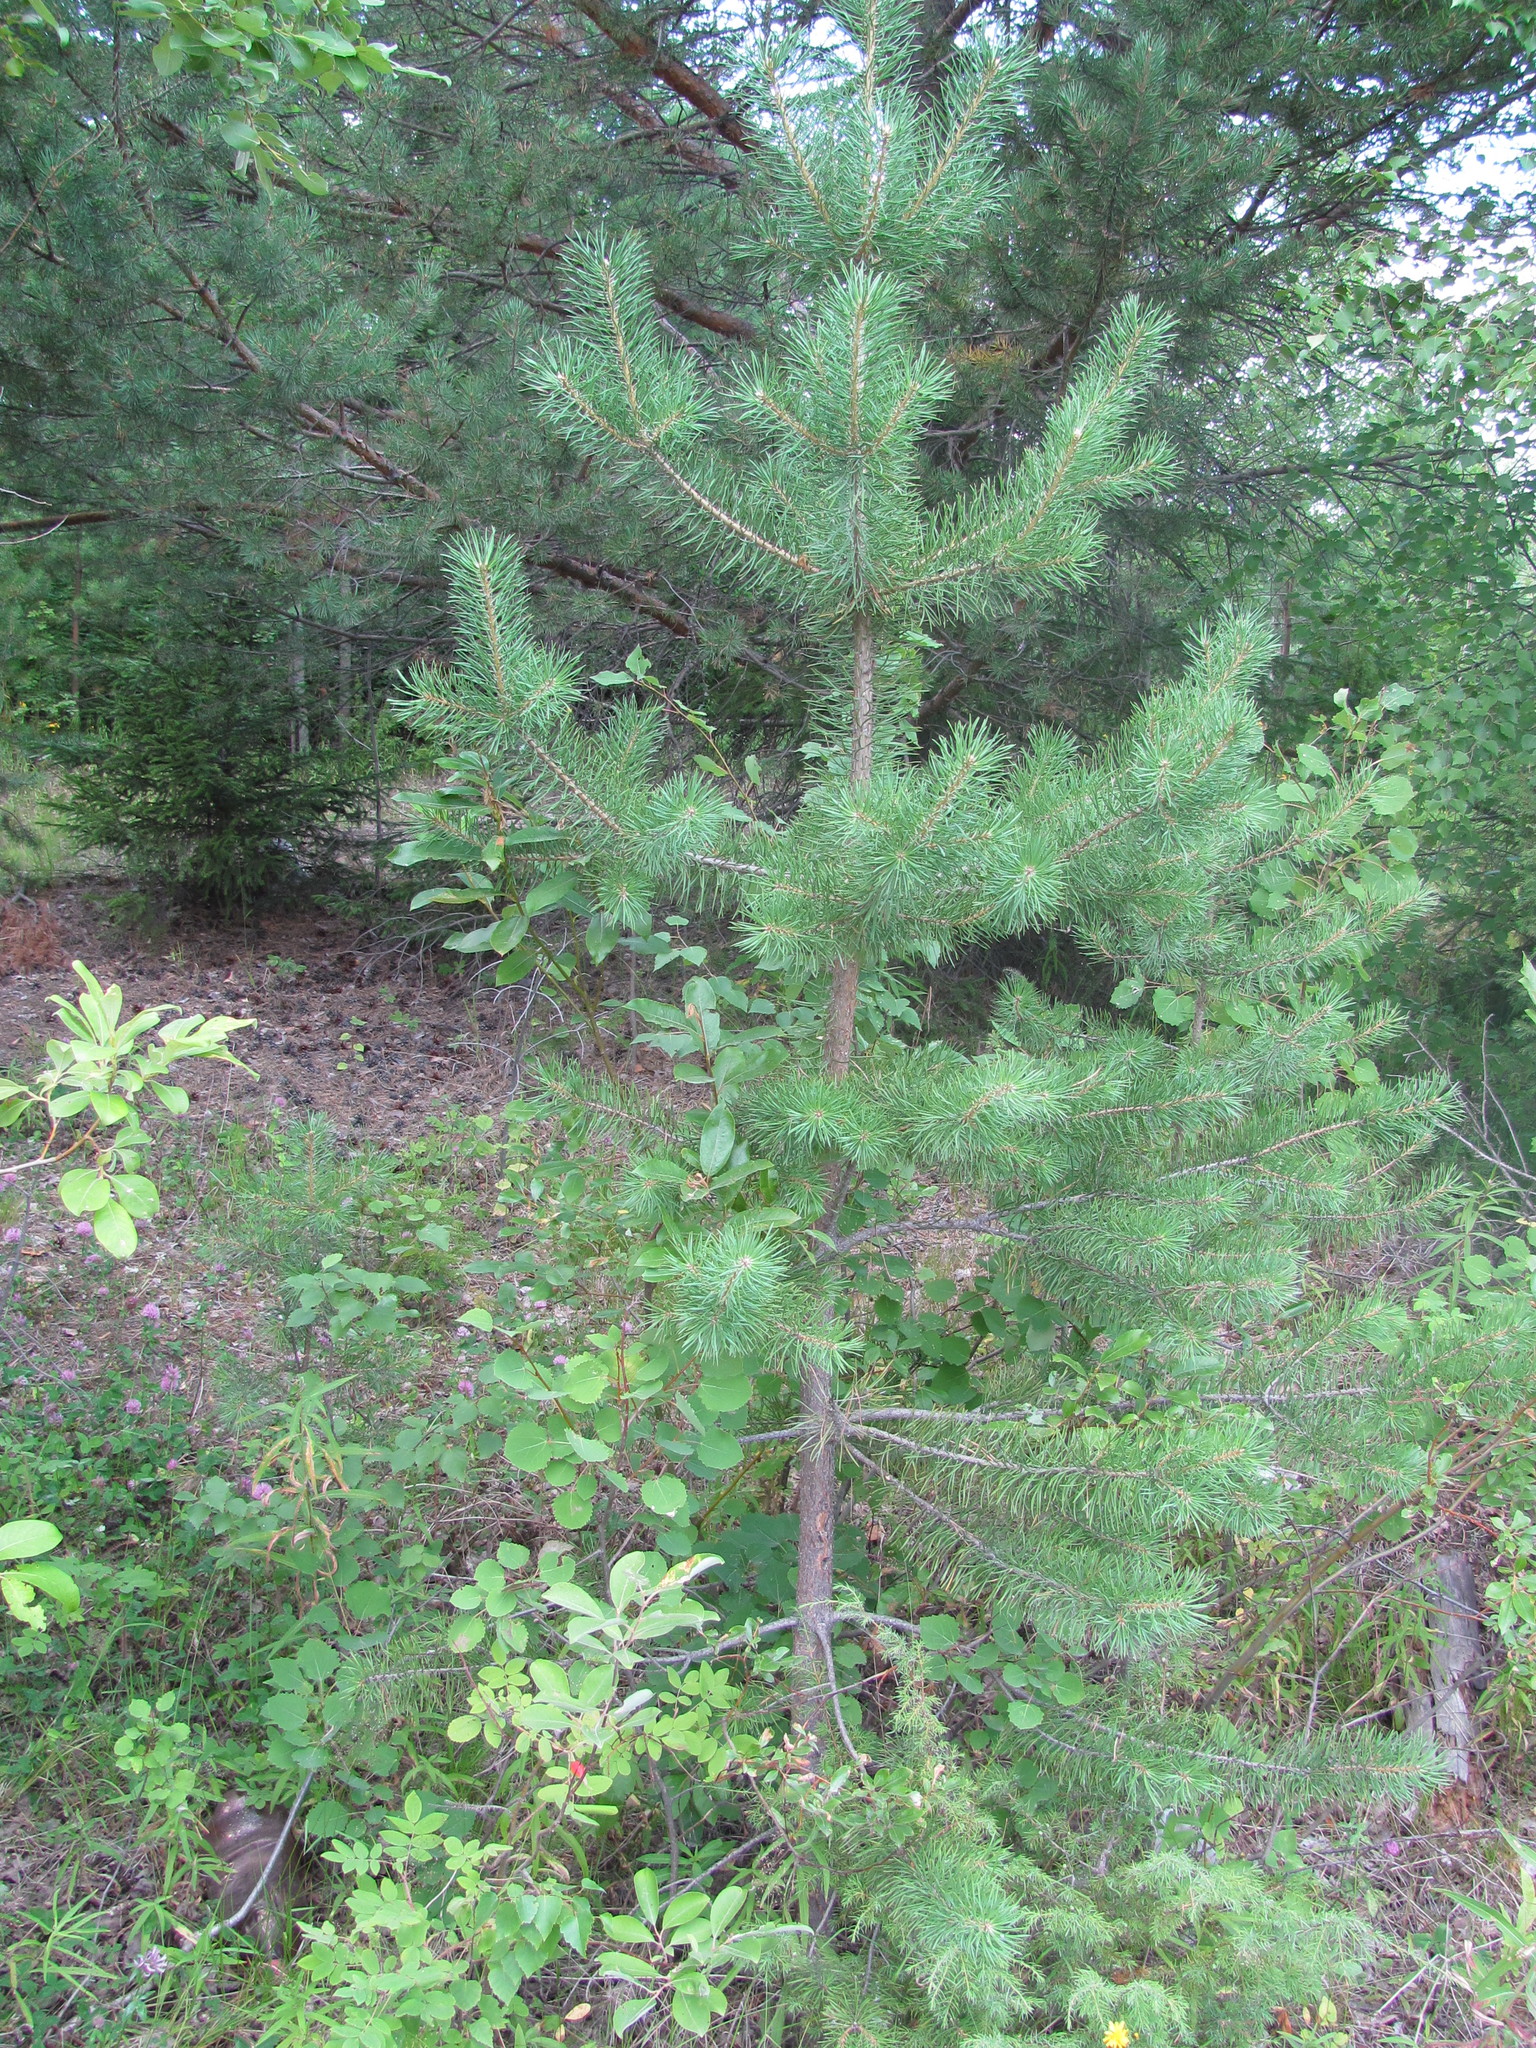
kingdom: Plantae
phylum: Tracheophyta
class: Pinopsida
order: Pinales
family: Pinaceae
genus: Pinus
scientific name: Pinus sylvestris
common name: Scots pine
